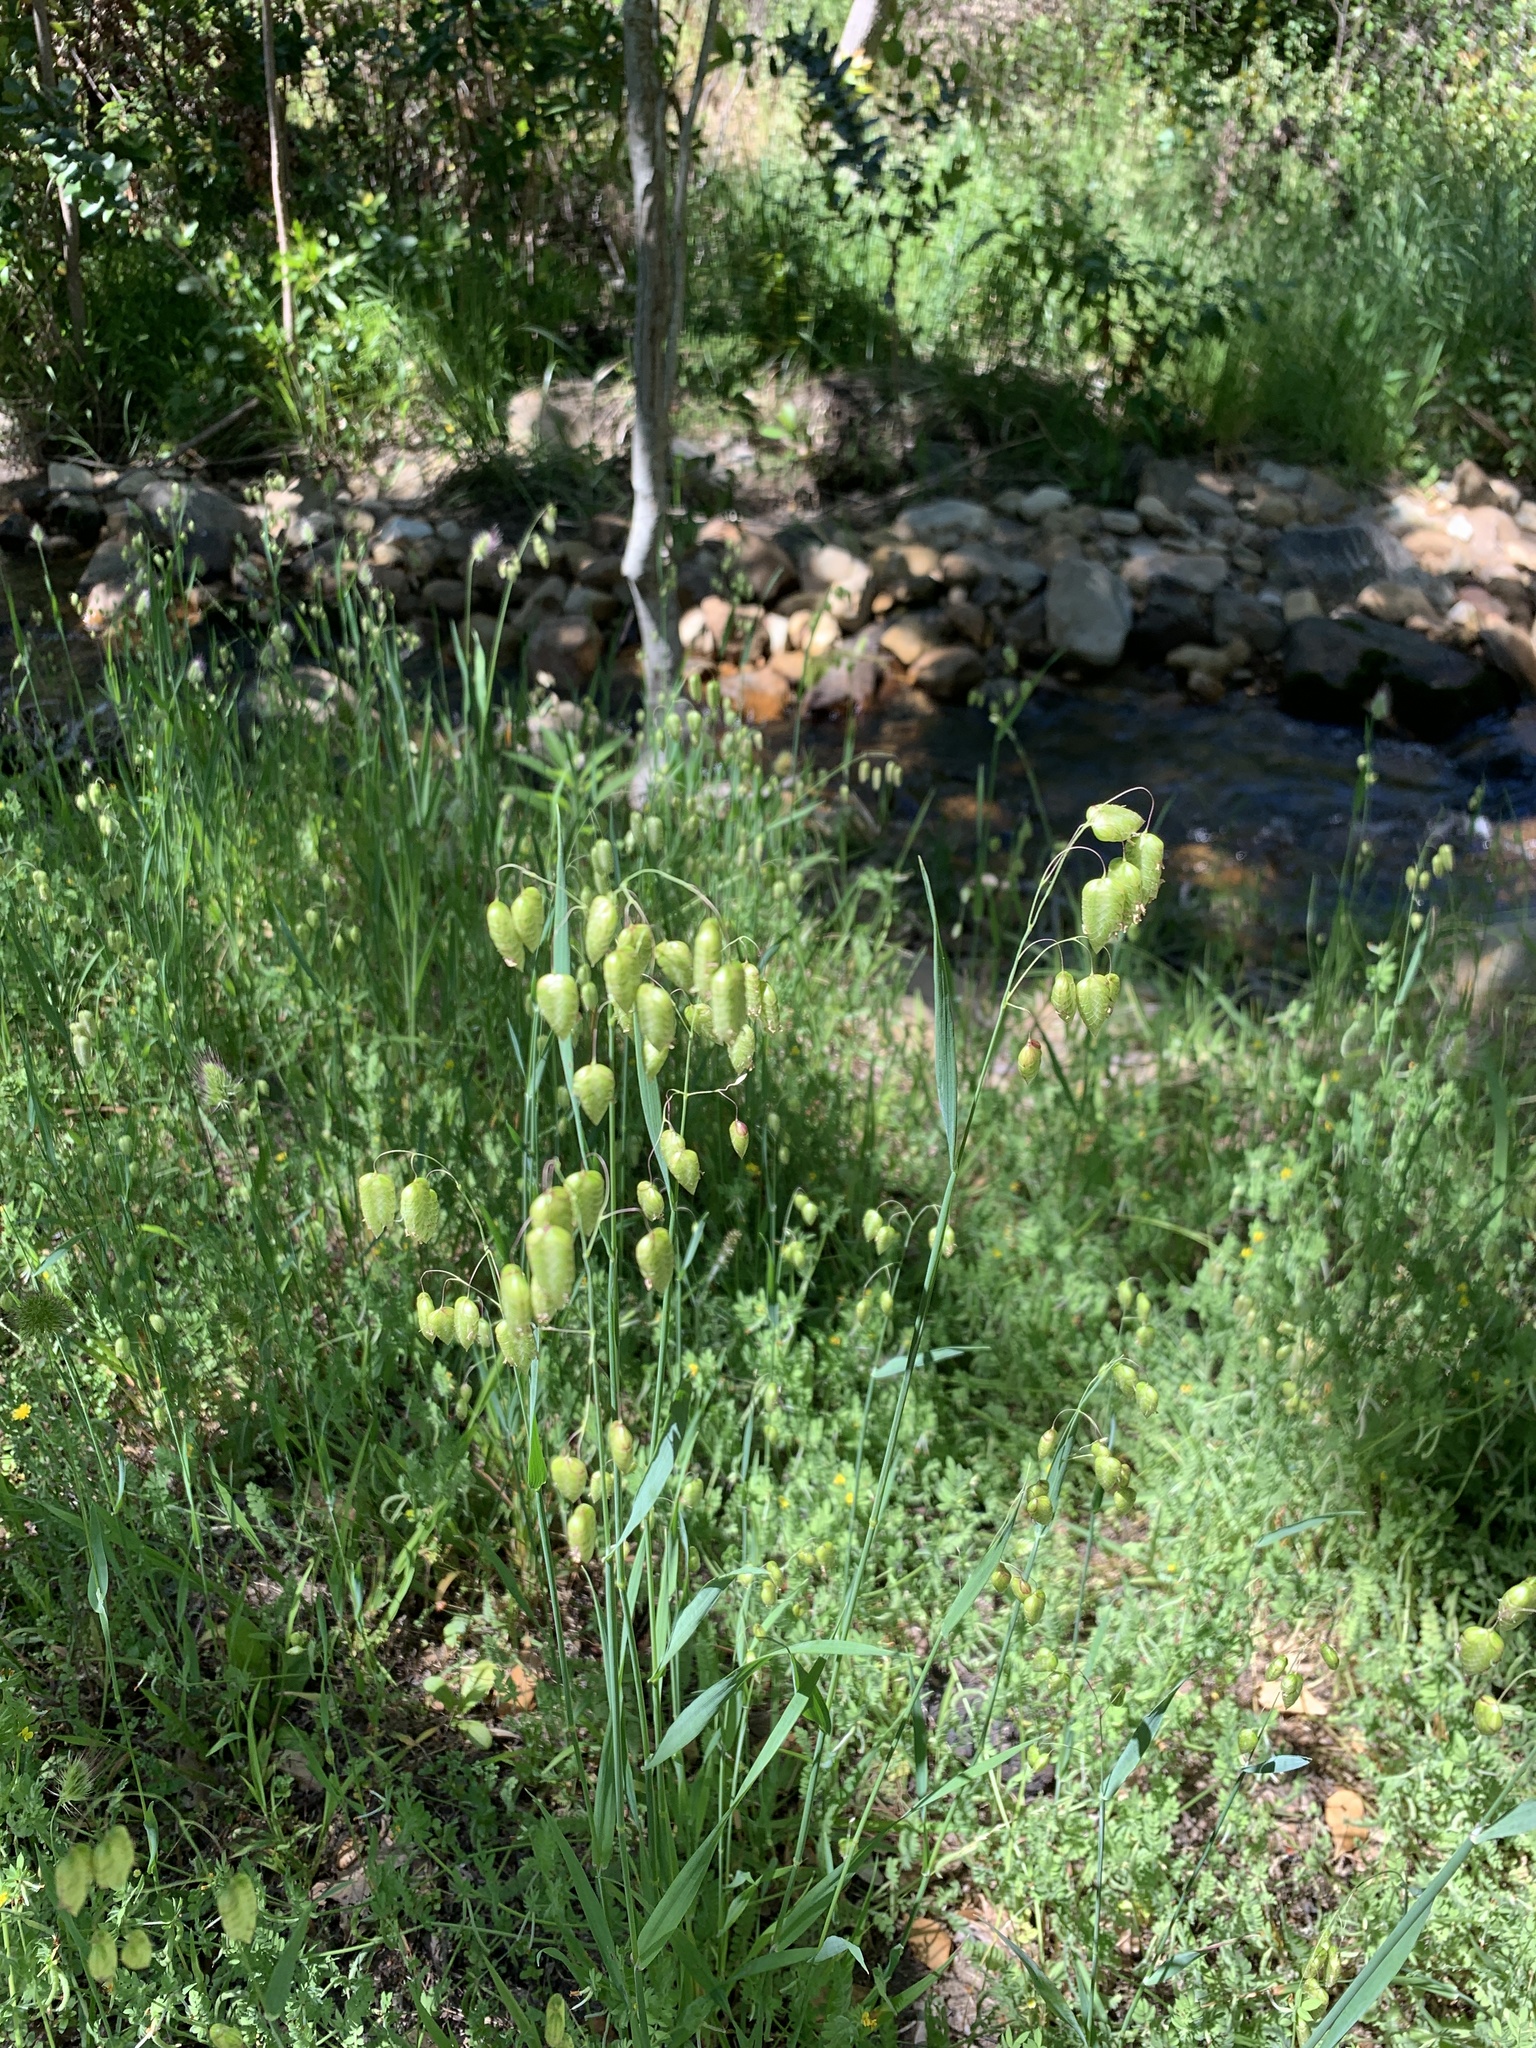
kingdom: Plantae
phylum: Tracheophyta
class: Liliopsida
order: Poales
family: Poaceae
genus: Briza
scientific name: Briza maxima
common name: Big quakinggrass
